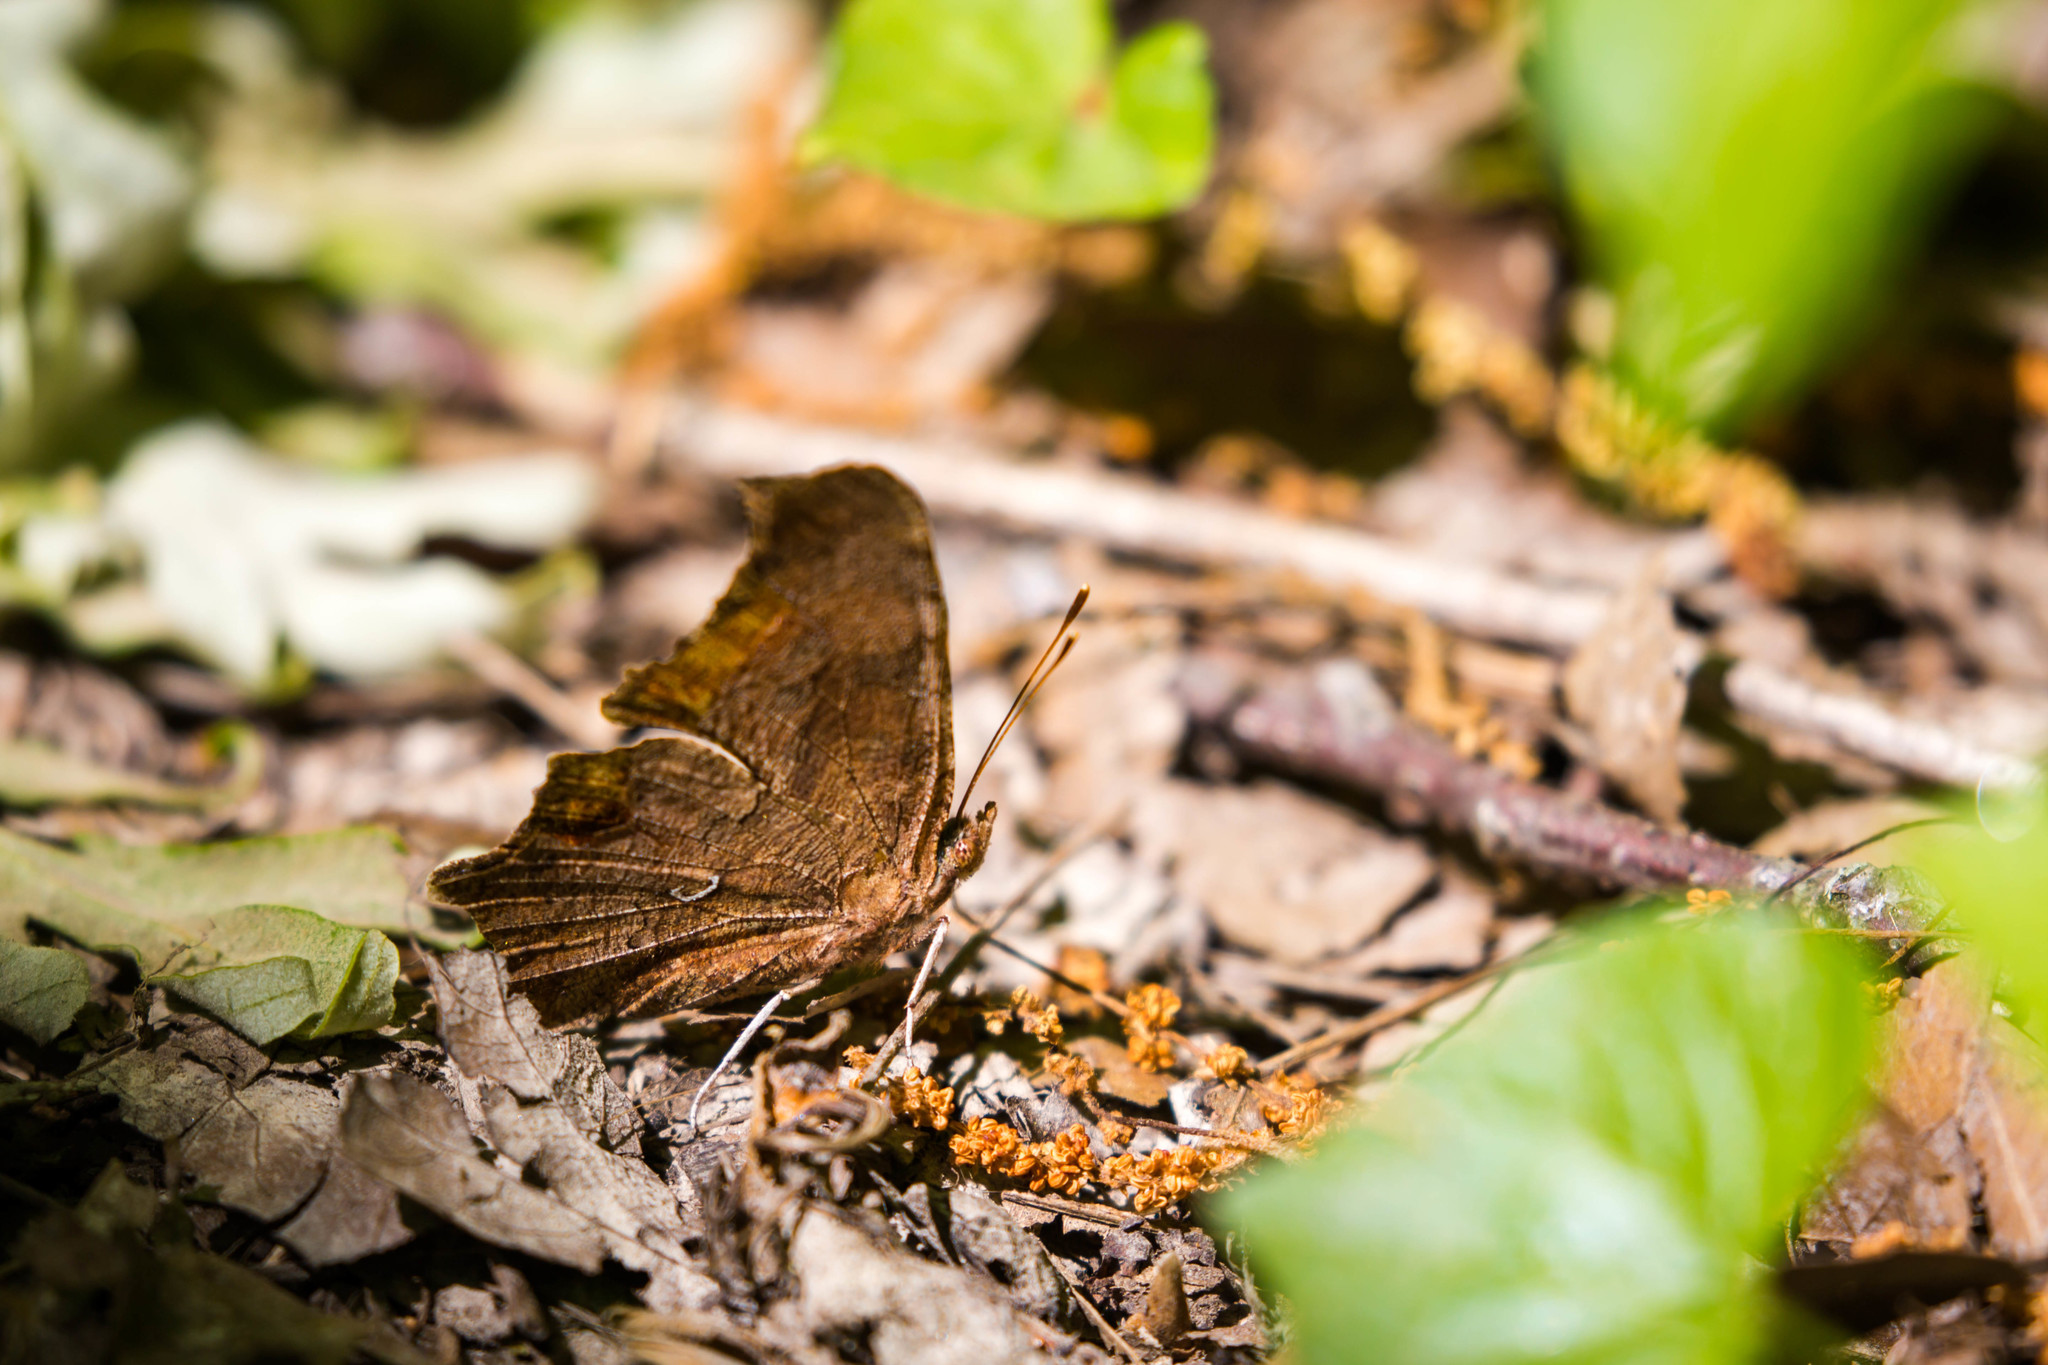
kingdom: Animalia
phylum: Arthropoda
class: Insecta
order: Lepidoptera
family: Nymphalidae
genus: Polygonia
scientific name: Polygonia comma
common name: Eastern comma
